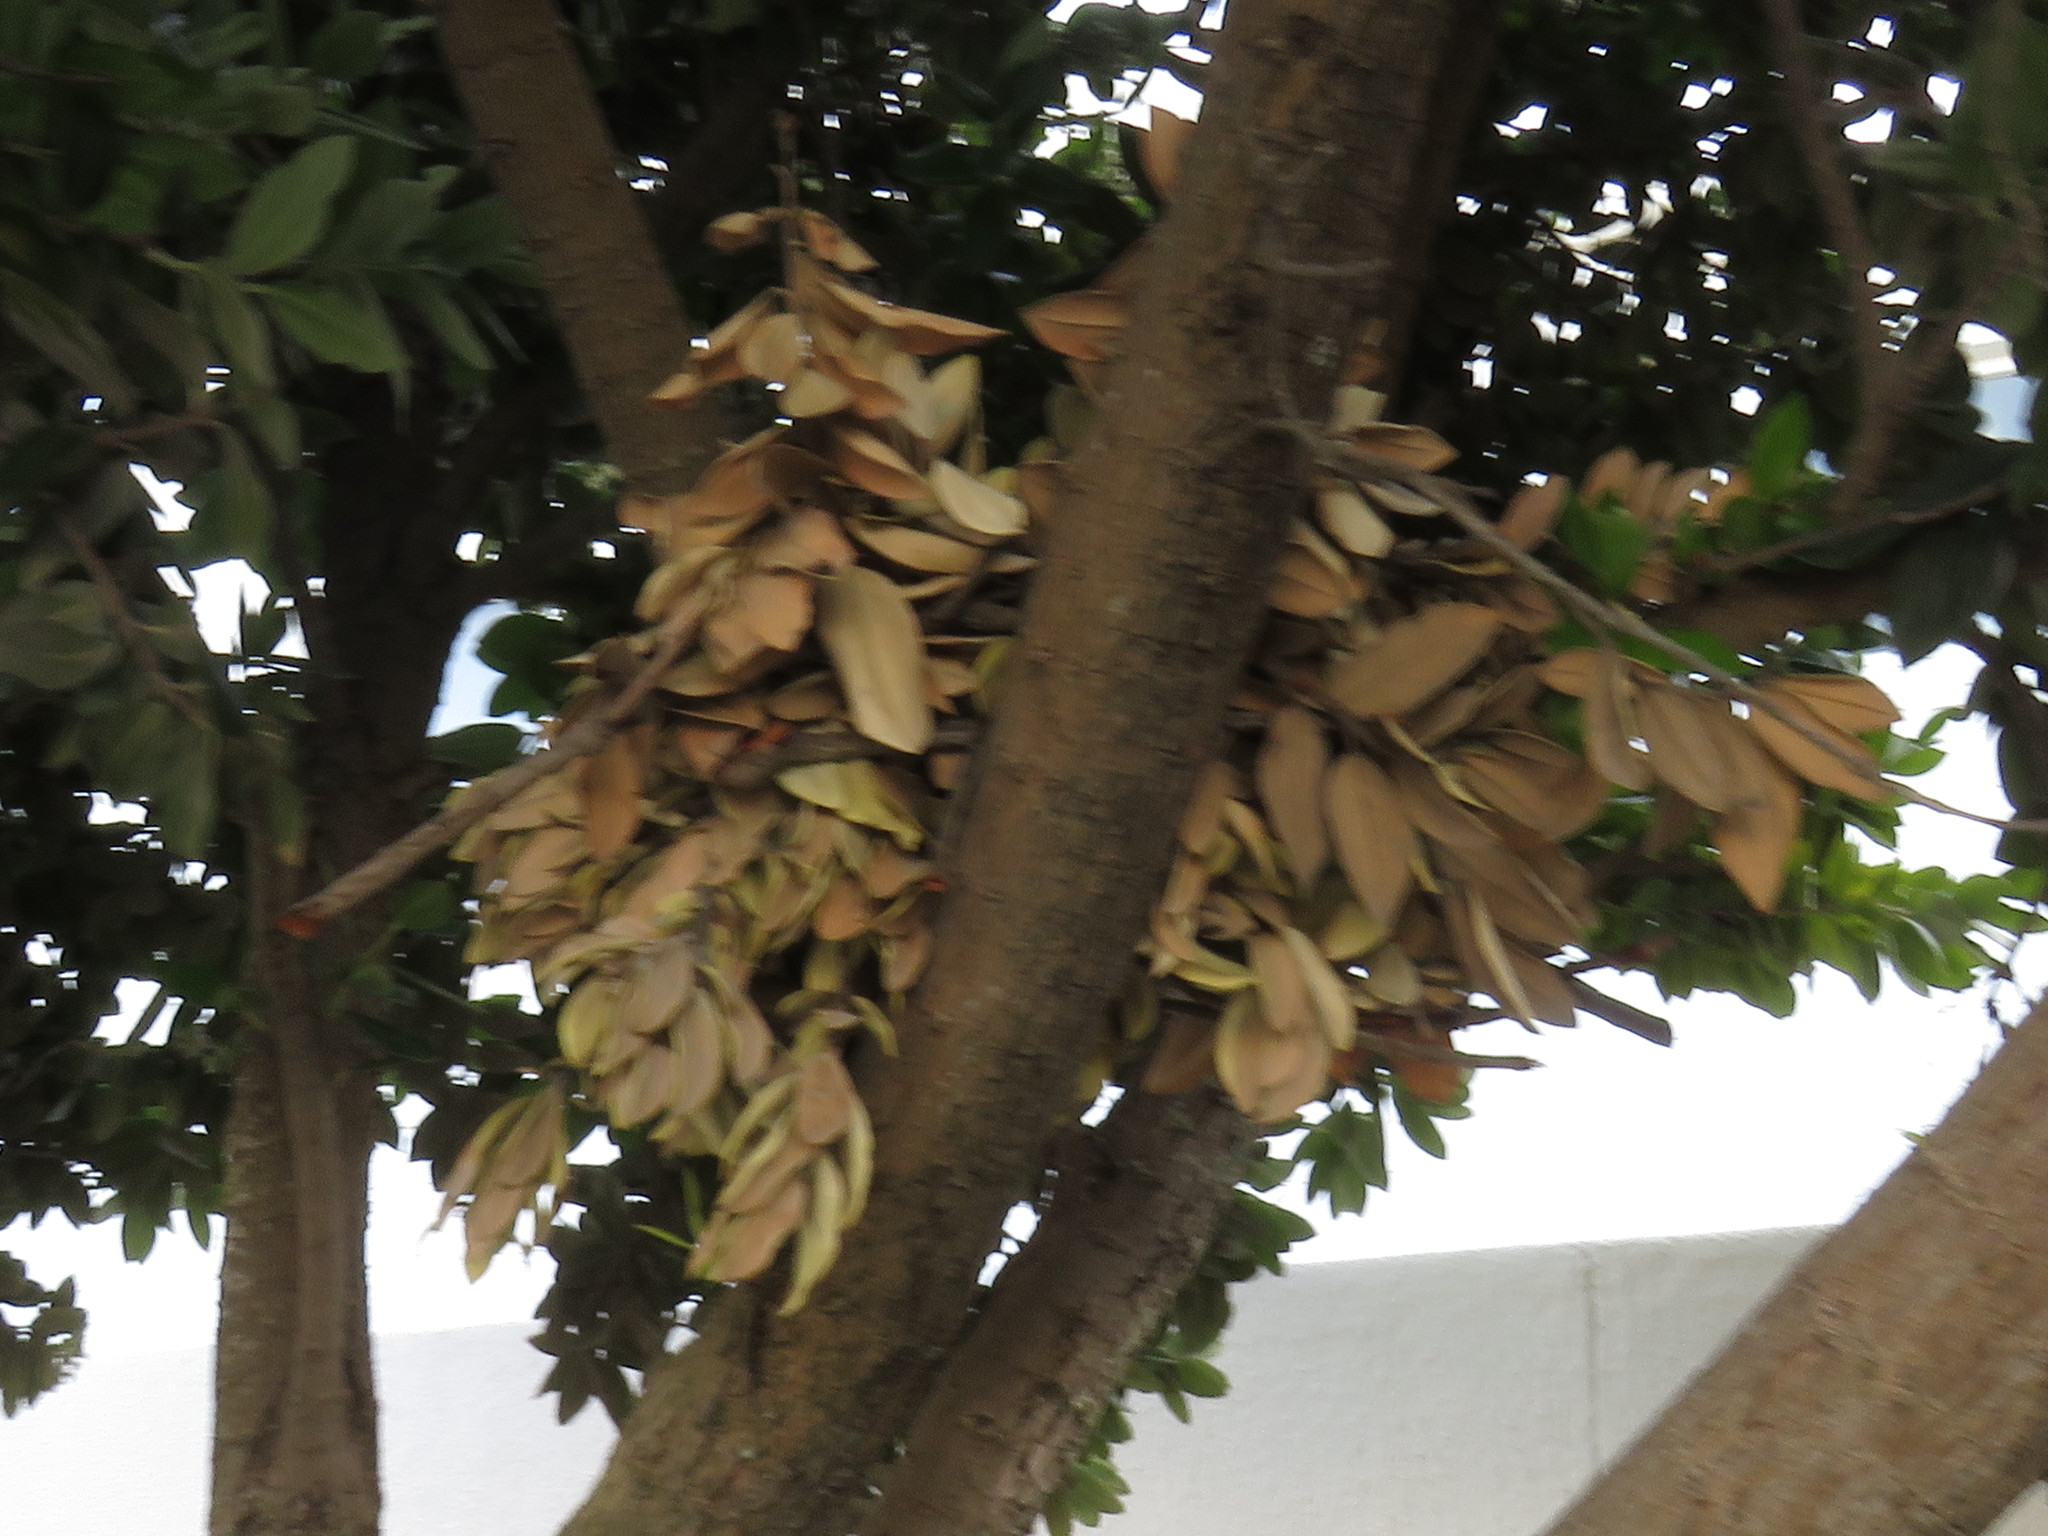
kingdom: Animalia
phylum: Chordata
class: Mammalia
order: Rodentia
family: Sciuridae
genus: Sciurus
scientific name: Sciurus carolinensis
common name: Eastern gray squirrel
